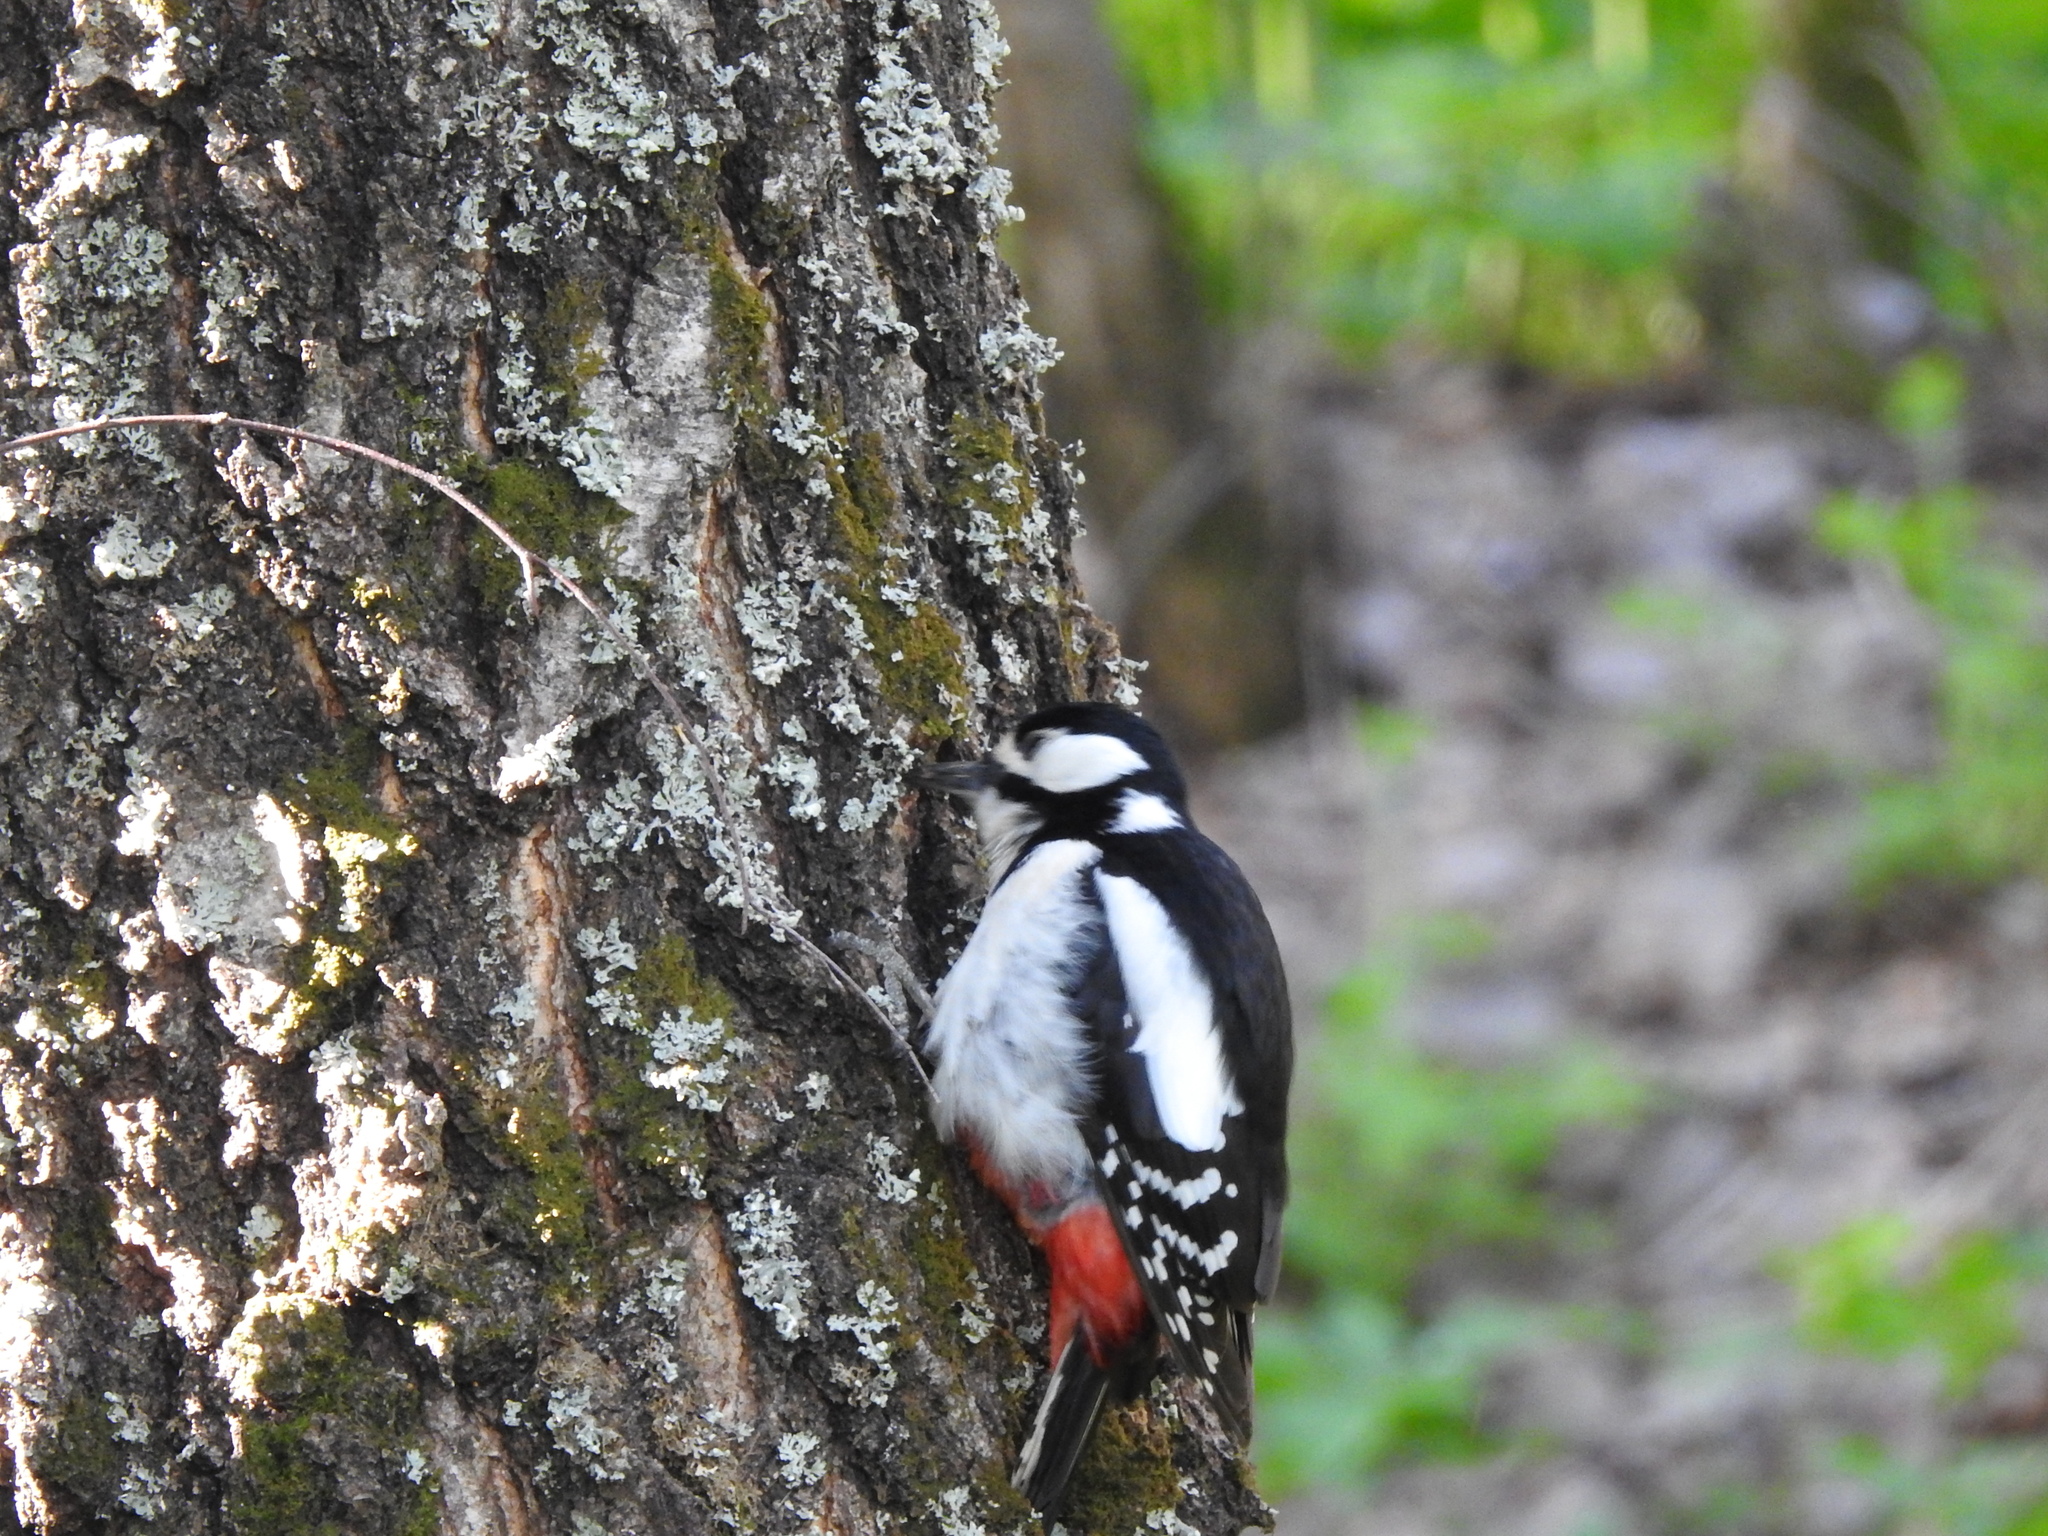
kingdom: Animalia
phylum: Chordata
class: Aves
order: Piciformes
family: Picidae
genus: Dendrocopos
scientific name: Dendrocopos major
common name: Great spotted woodpecker
